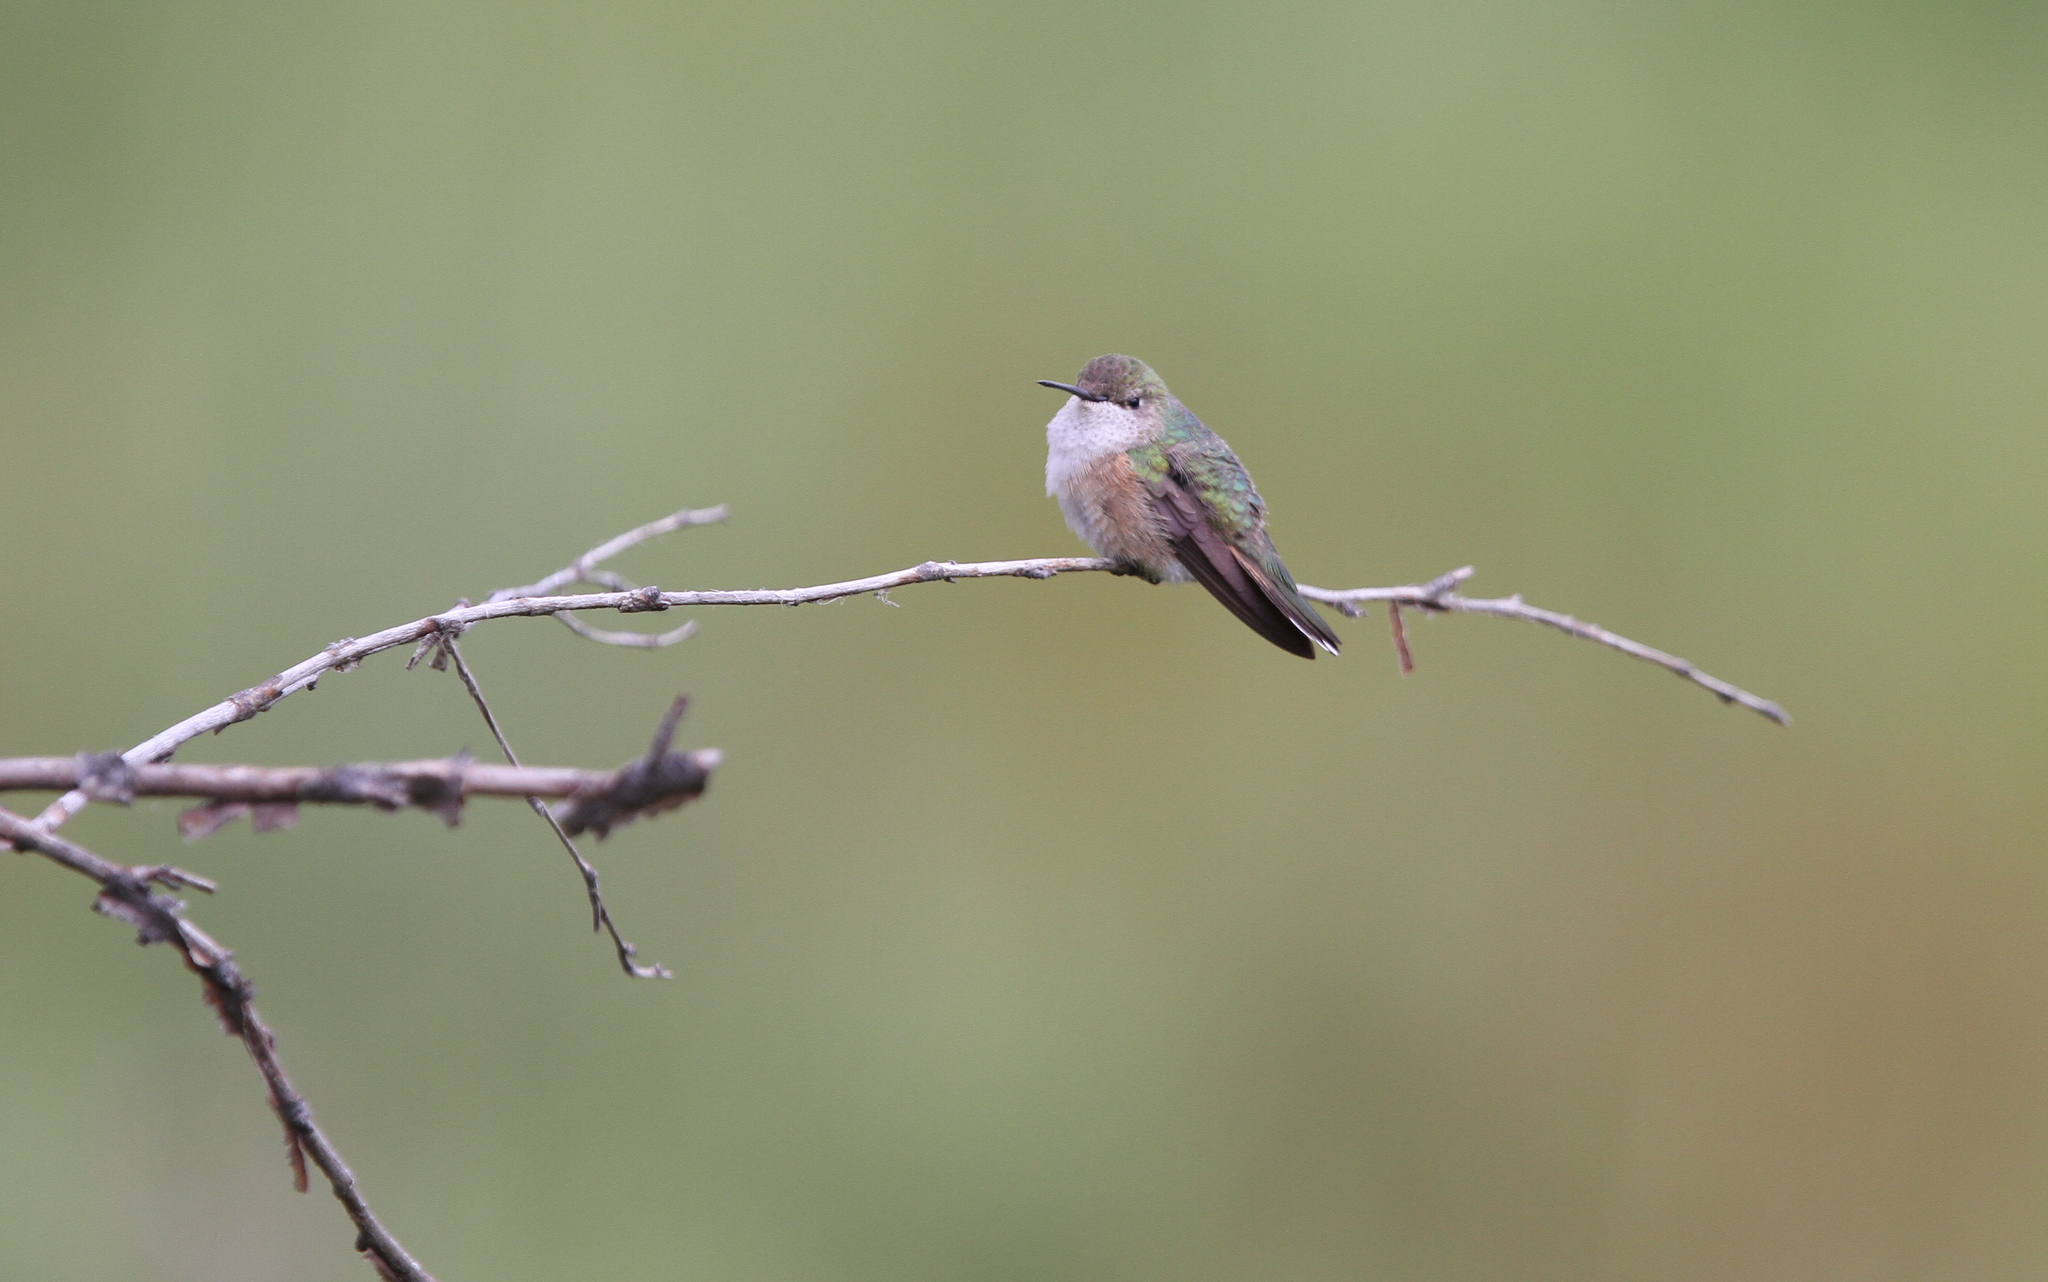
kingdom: Animalia
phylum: Chordata
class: Aves
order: Apodiformes
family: Trochilidae
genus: Selasphorus
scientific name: Selasphorus platycercus
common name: Broad-tailed hummingbird
